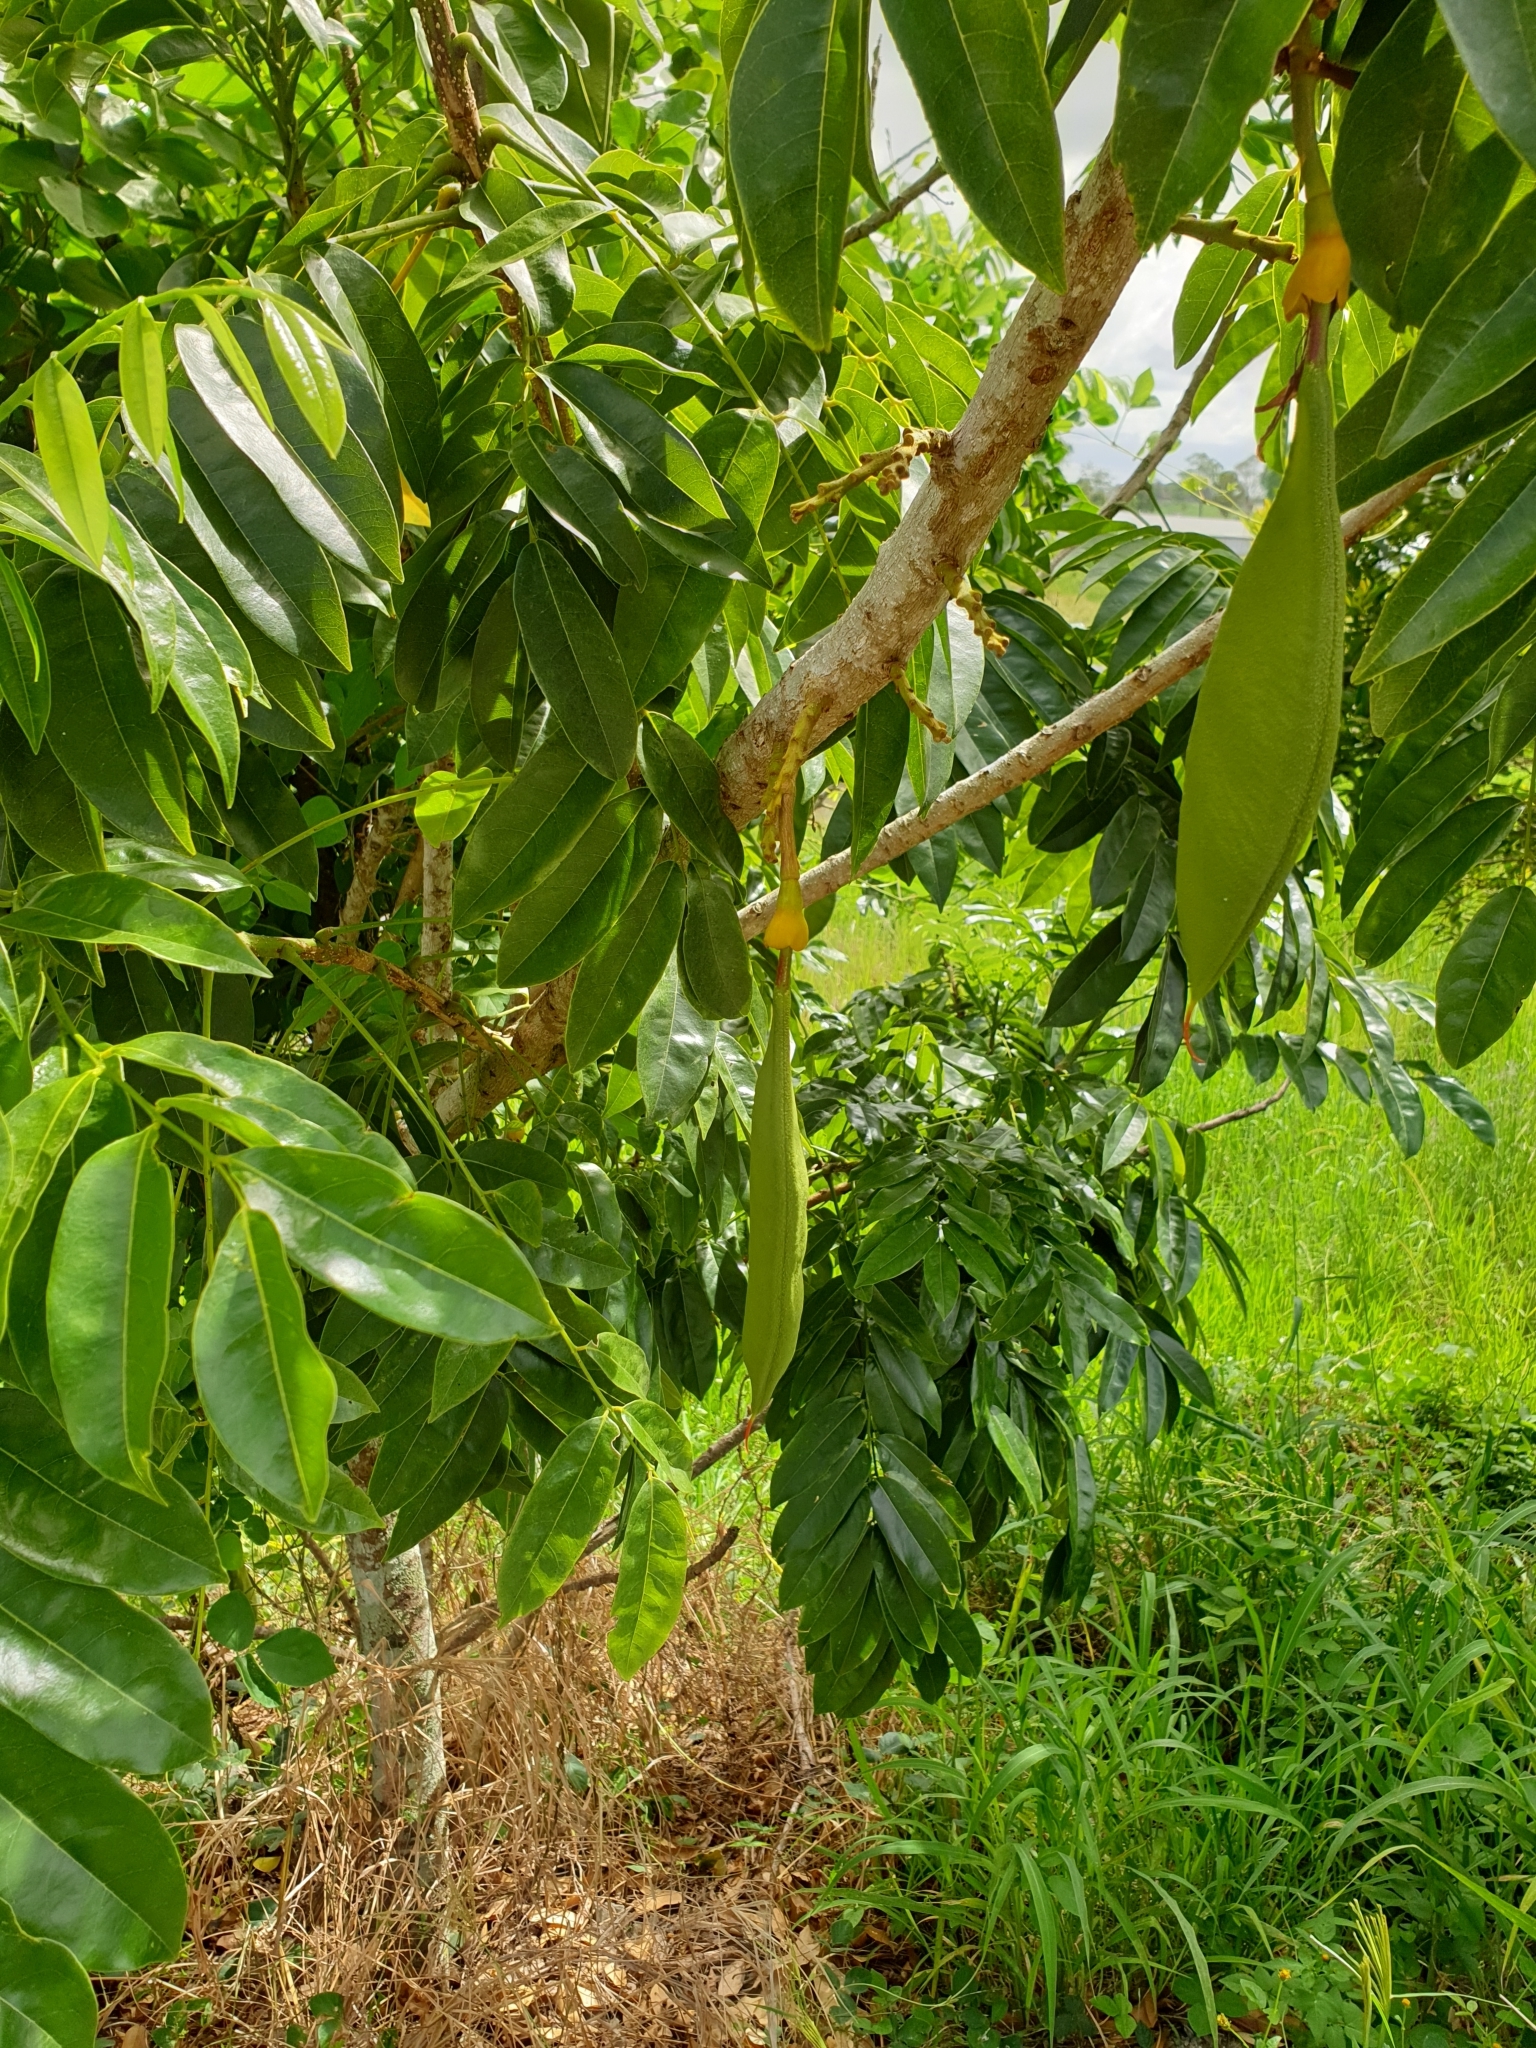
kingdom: Plantae
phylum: Tracheophyta
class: Magnoliopsida
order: Fabales
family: Fabaceae
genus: Castanospermum
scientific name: Castanospermum australe
